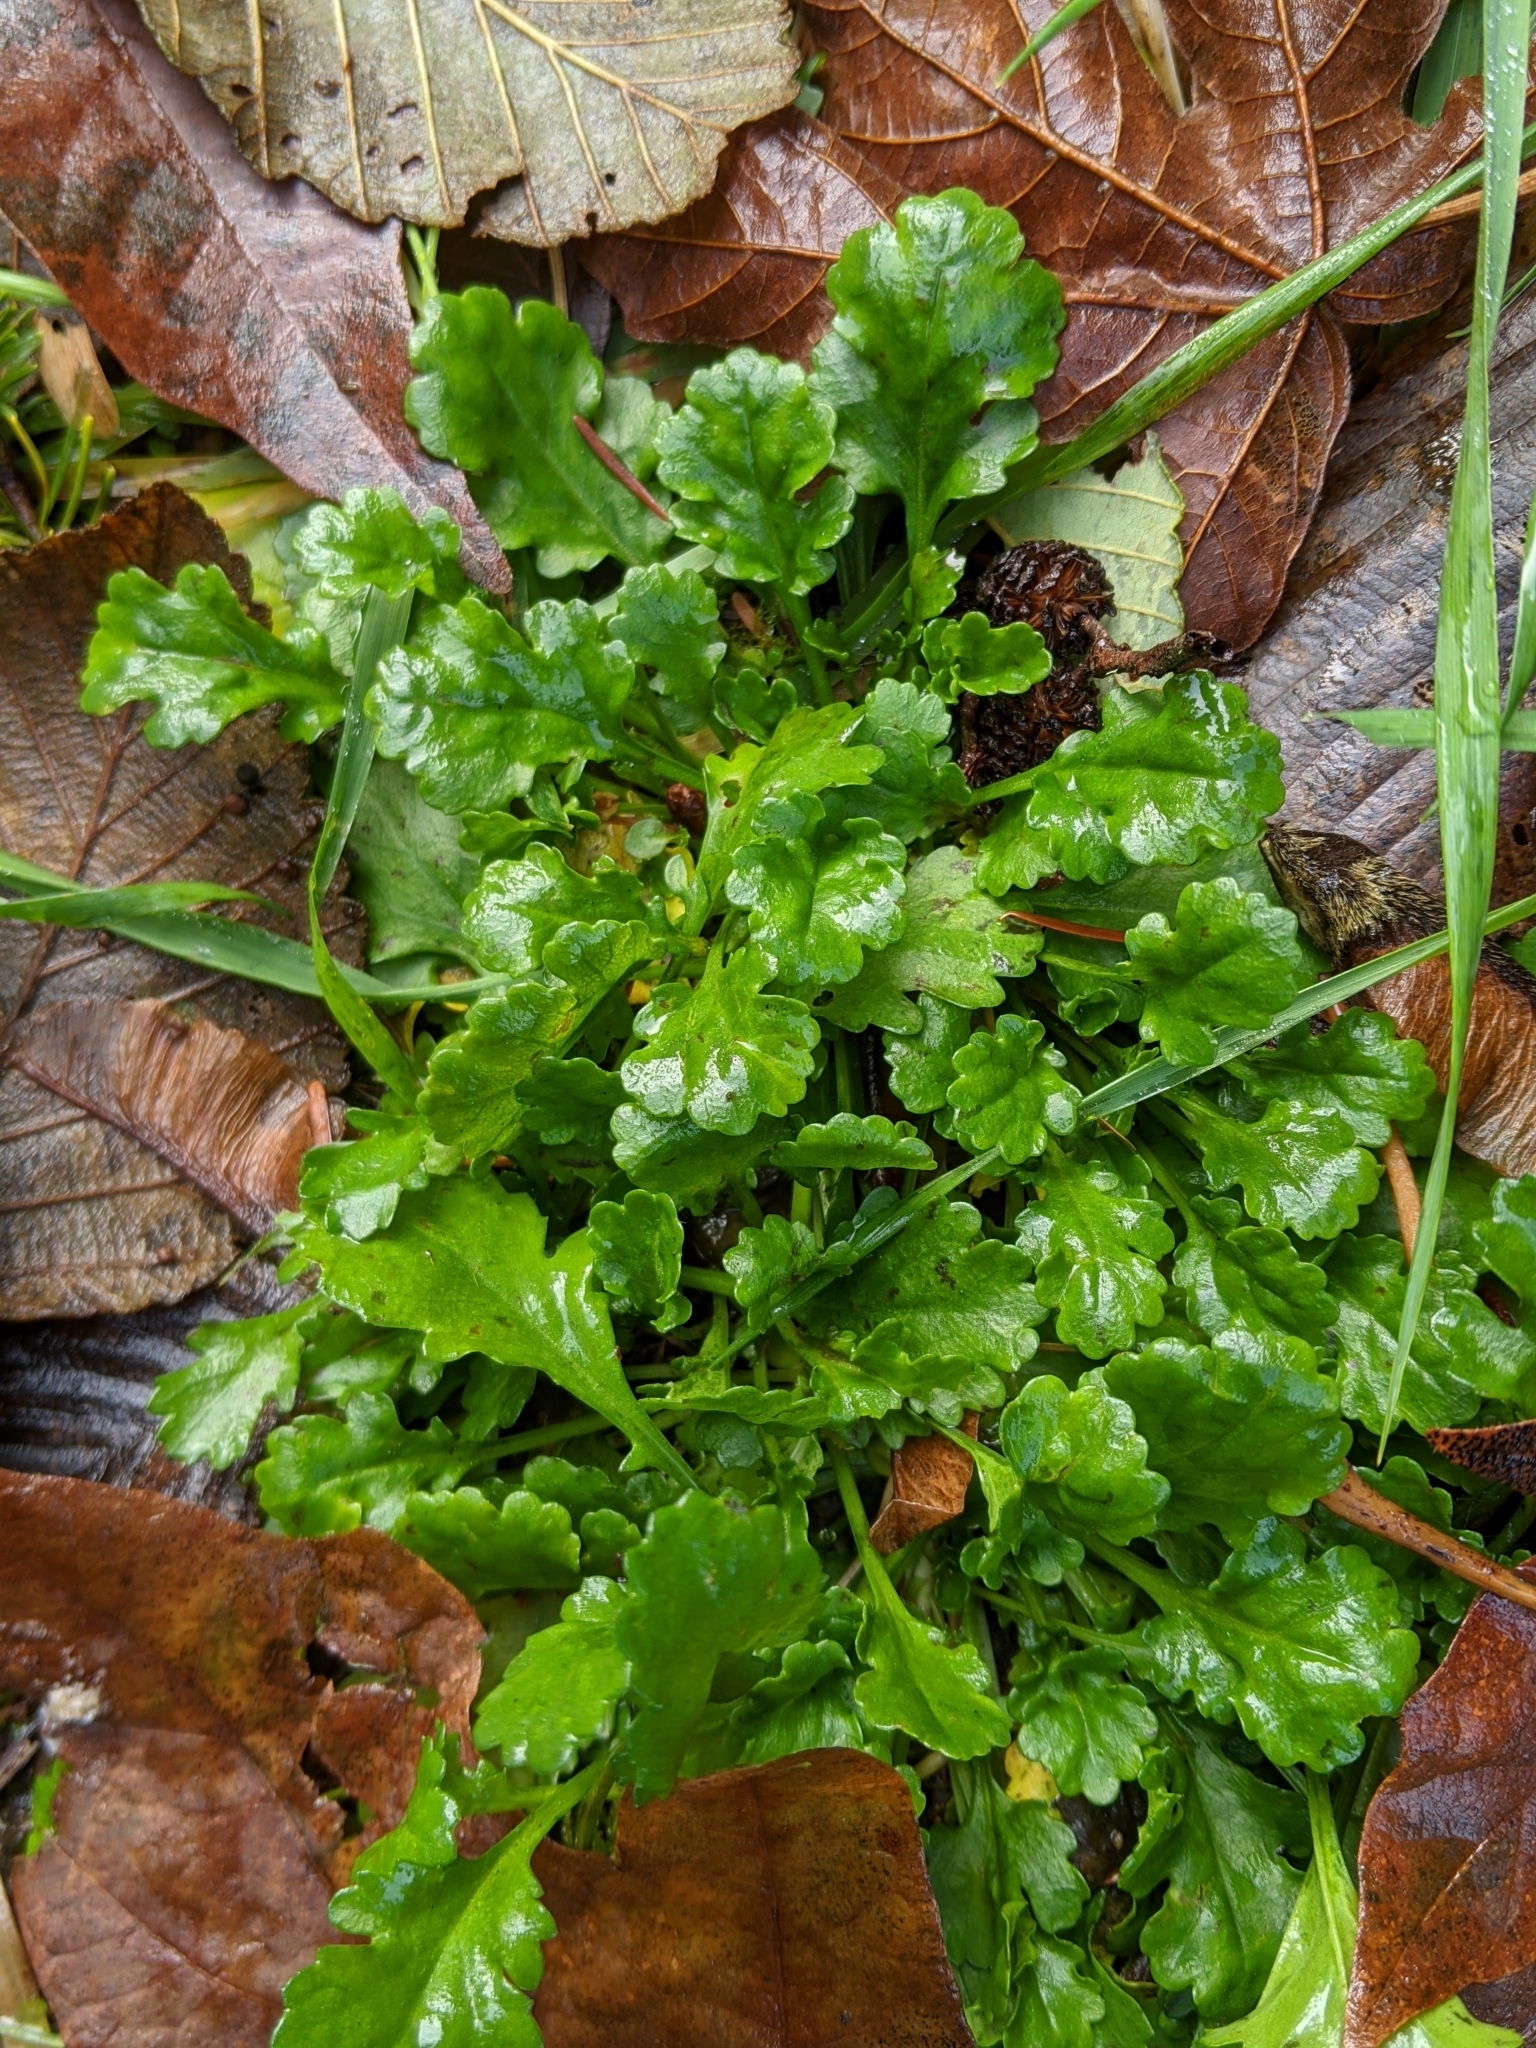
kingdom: Plantae
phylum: Tracheophyta
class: Magnoliopsida
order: Asterales
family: Asteraceae
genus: Leucanthemum
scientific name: Leucanthemum vulgare
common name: Oxeye daisy
